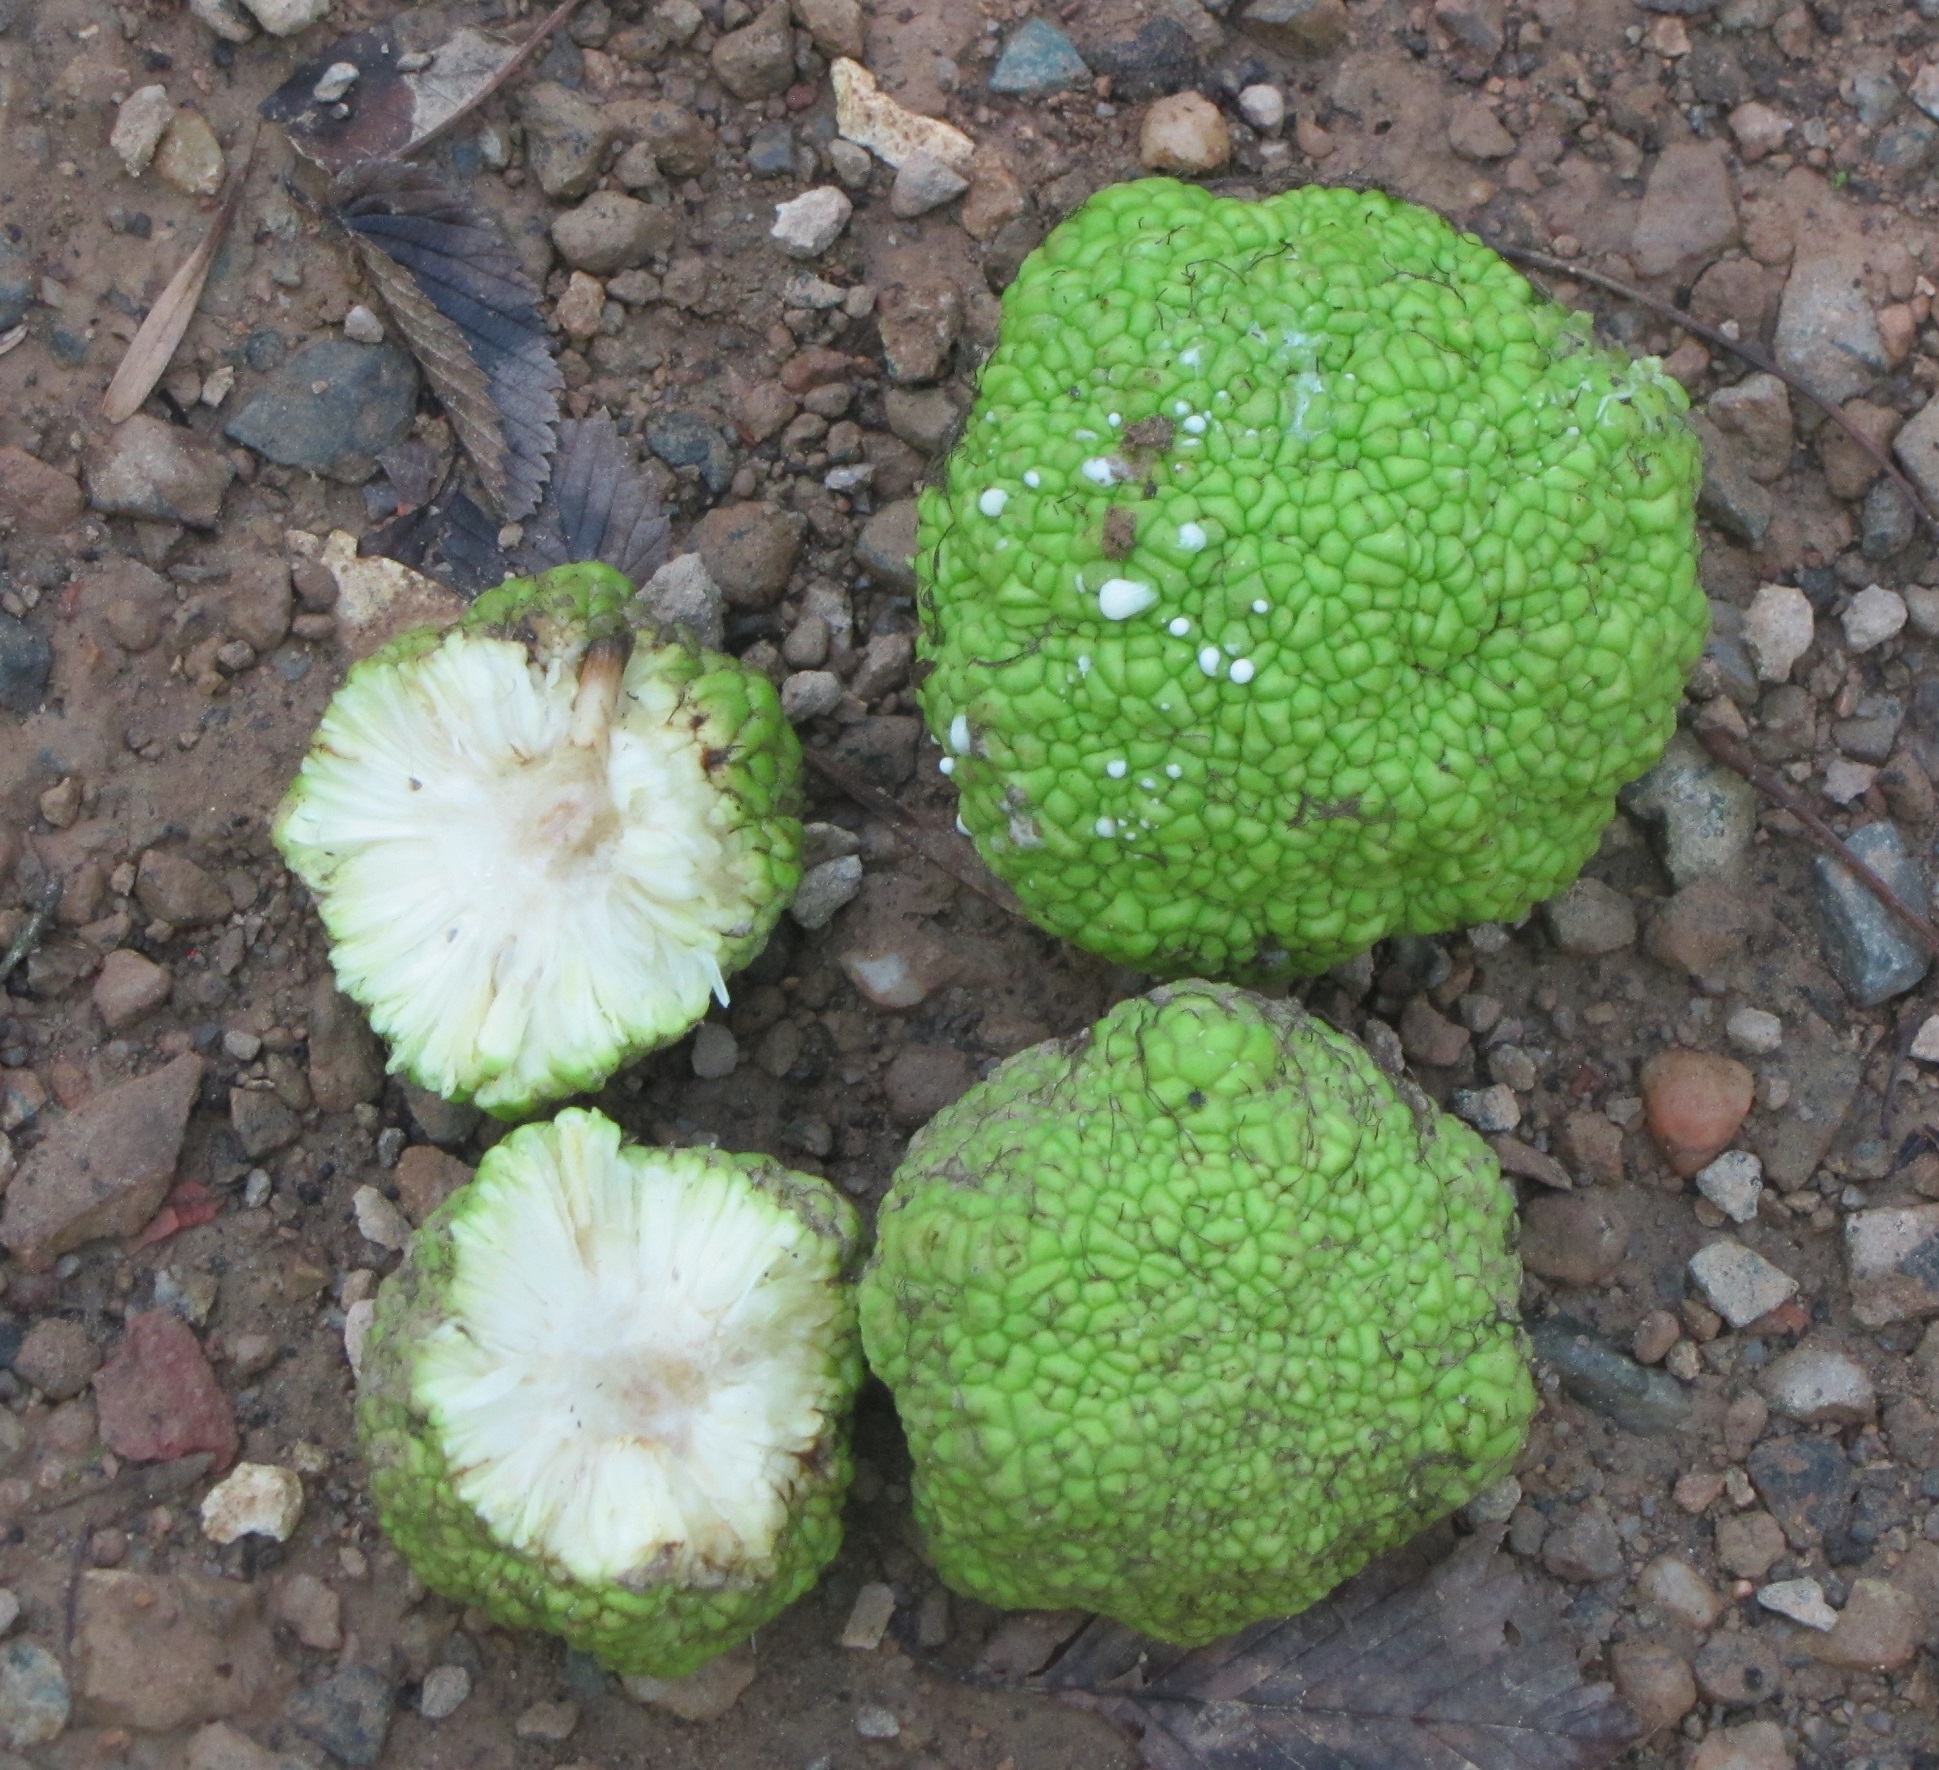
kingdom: Plantae
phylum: Tracheophyta
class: Magnoliopsida
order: Rosales
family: Moraceae
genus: Maclura
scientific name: Maclura pomifera
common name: Osage-orange
